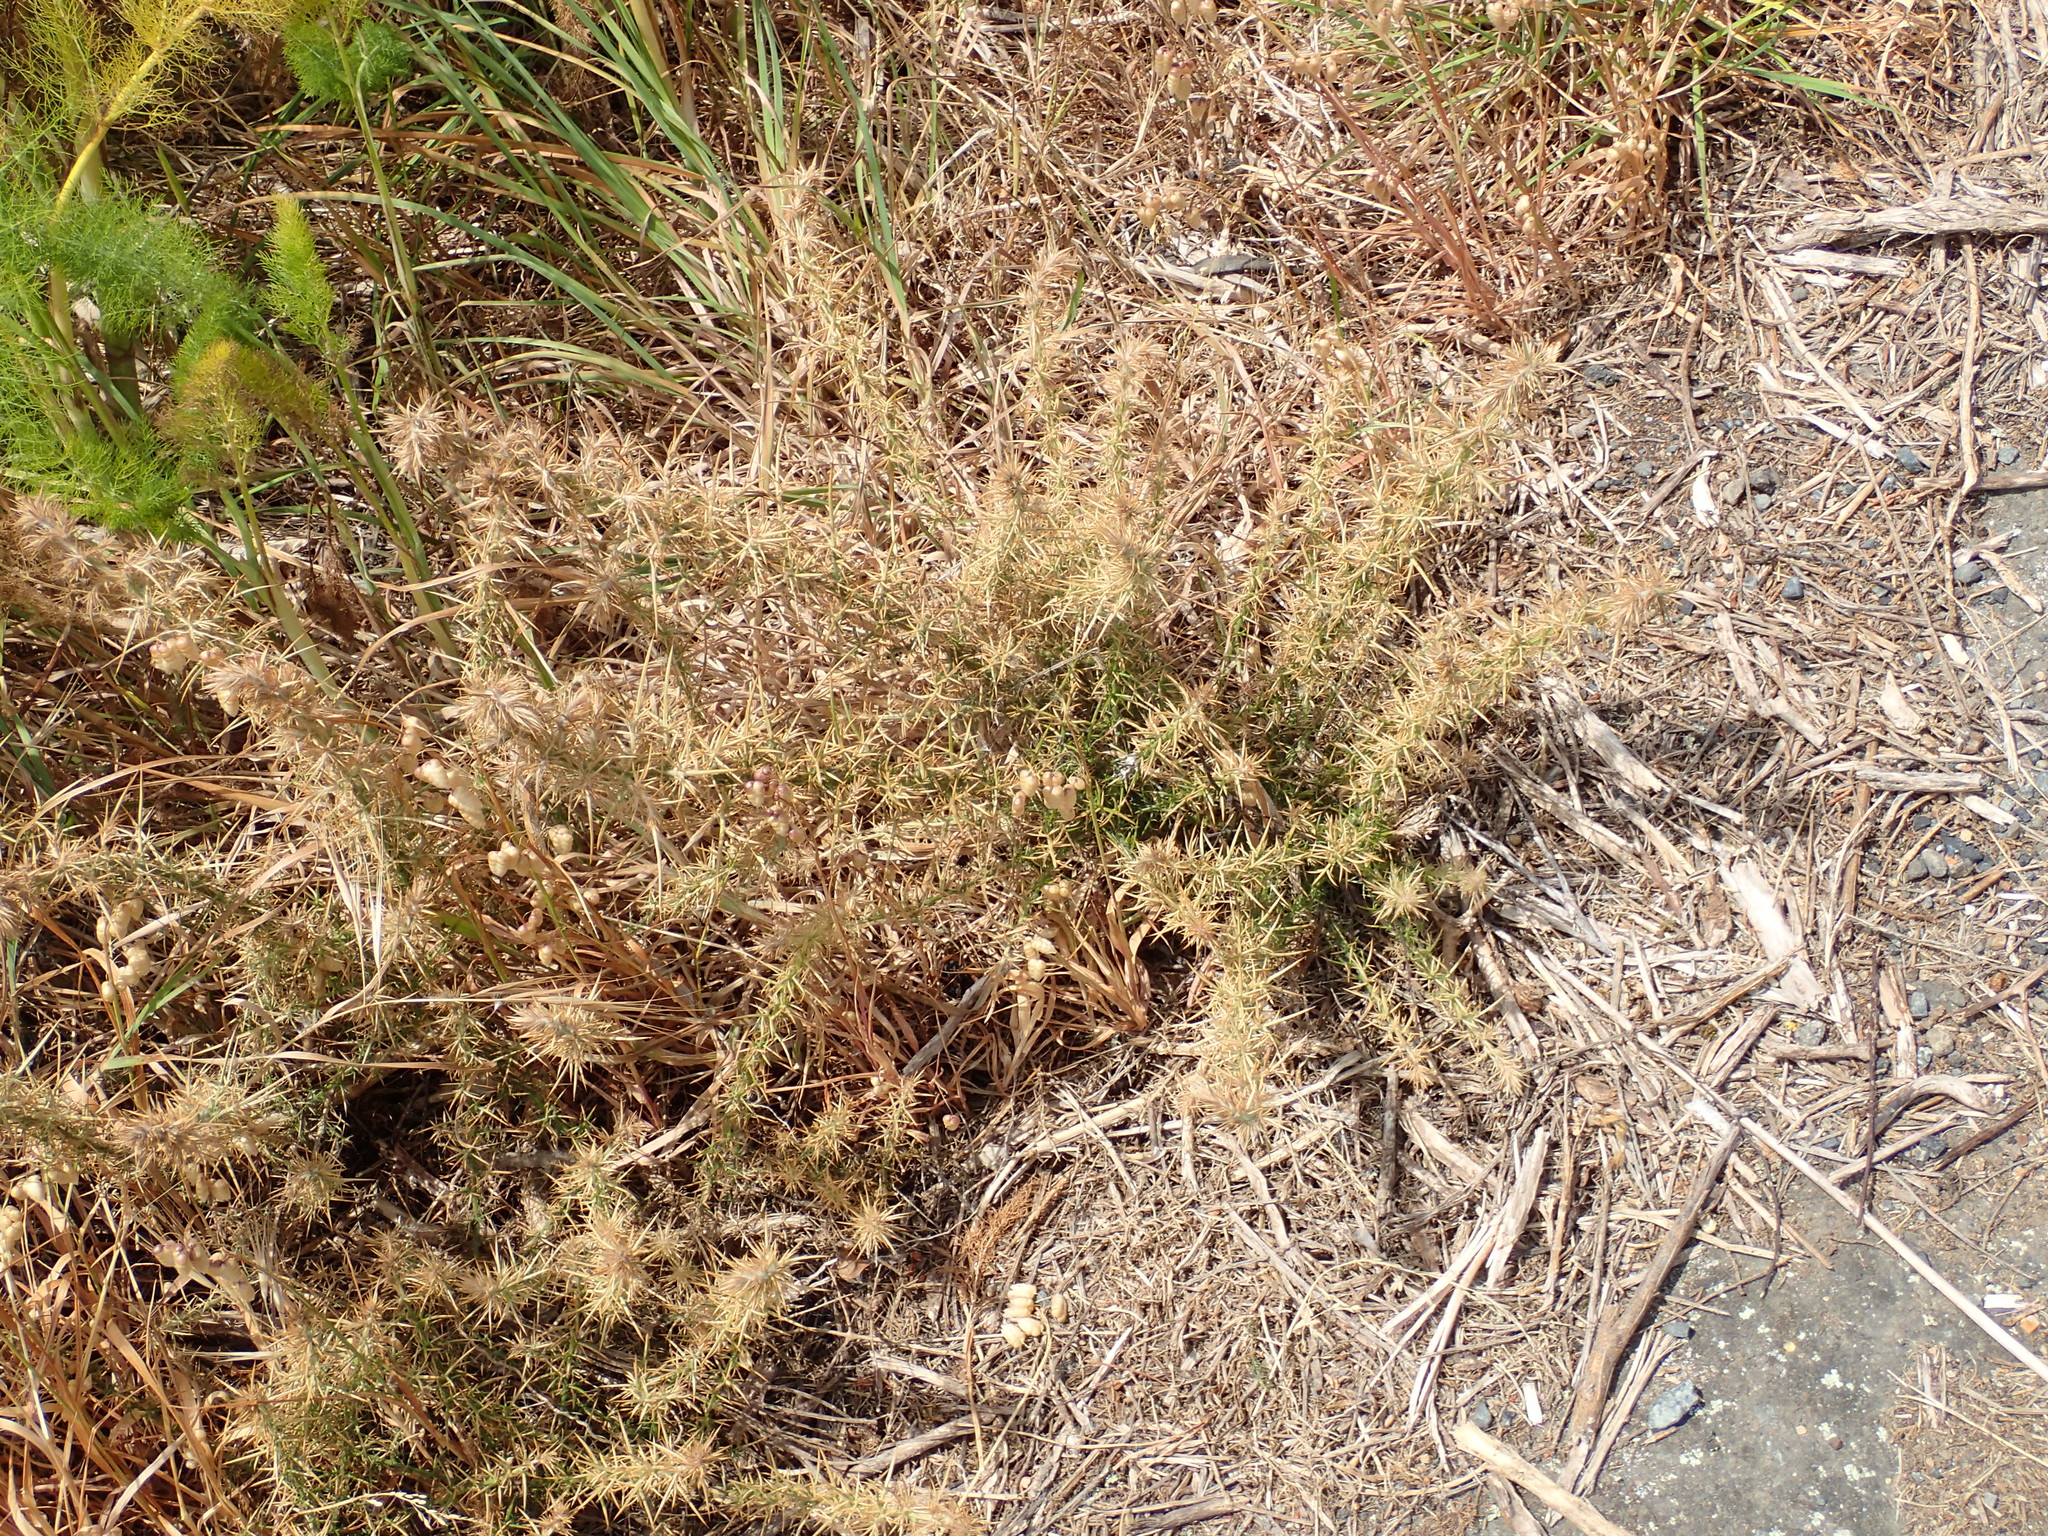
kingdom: Plantae
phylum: Tracheophyta
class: Magnoliopsida
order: Fabales
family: Fabaceae
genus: Ulex
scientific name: Ulex europaeus
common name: Common gorse
